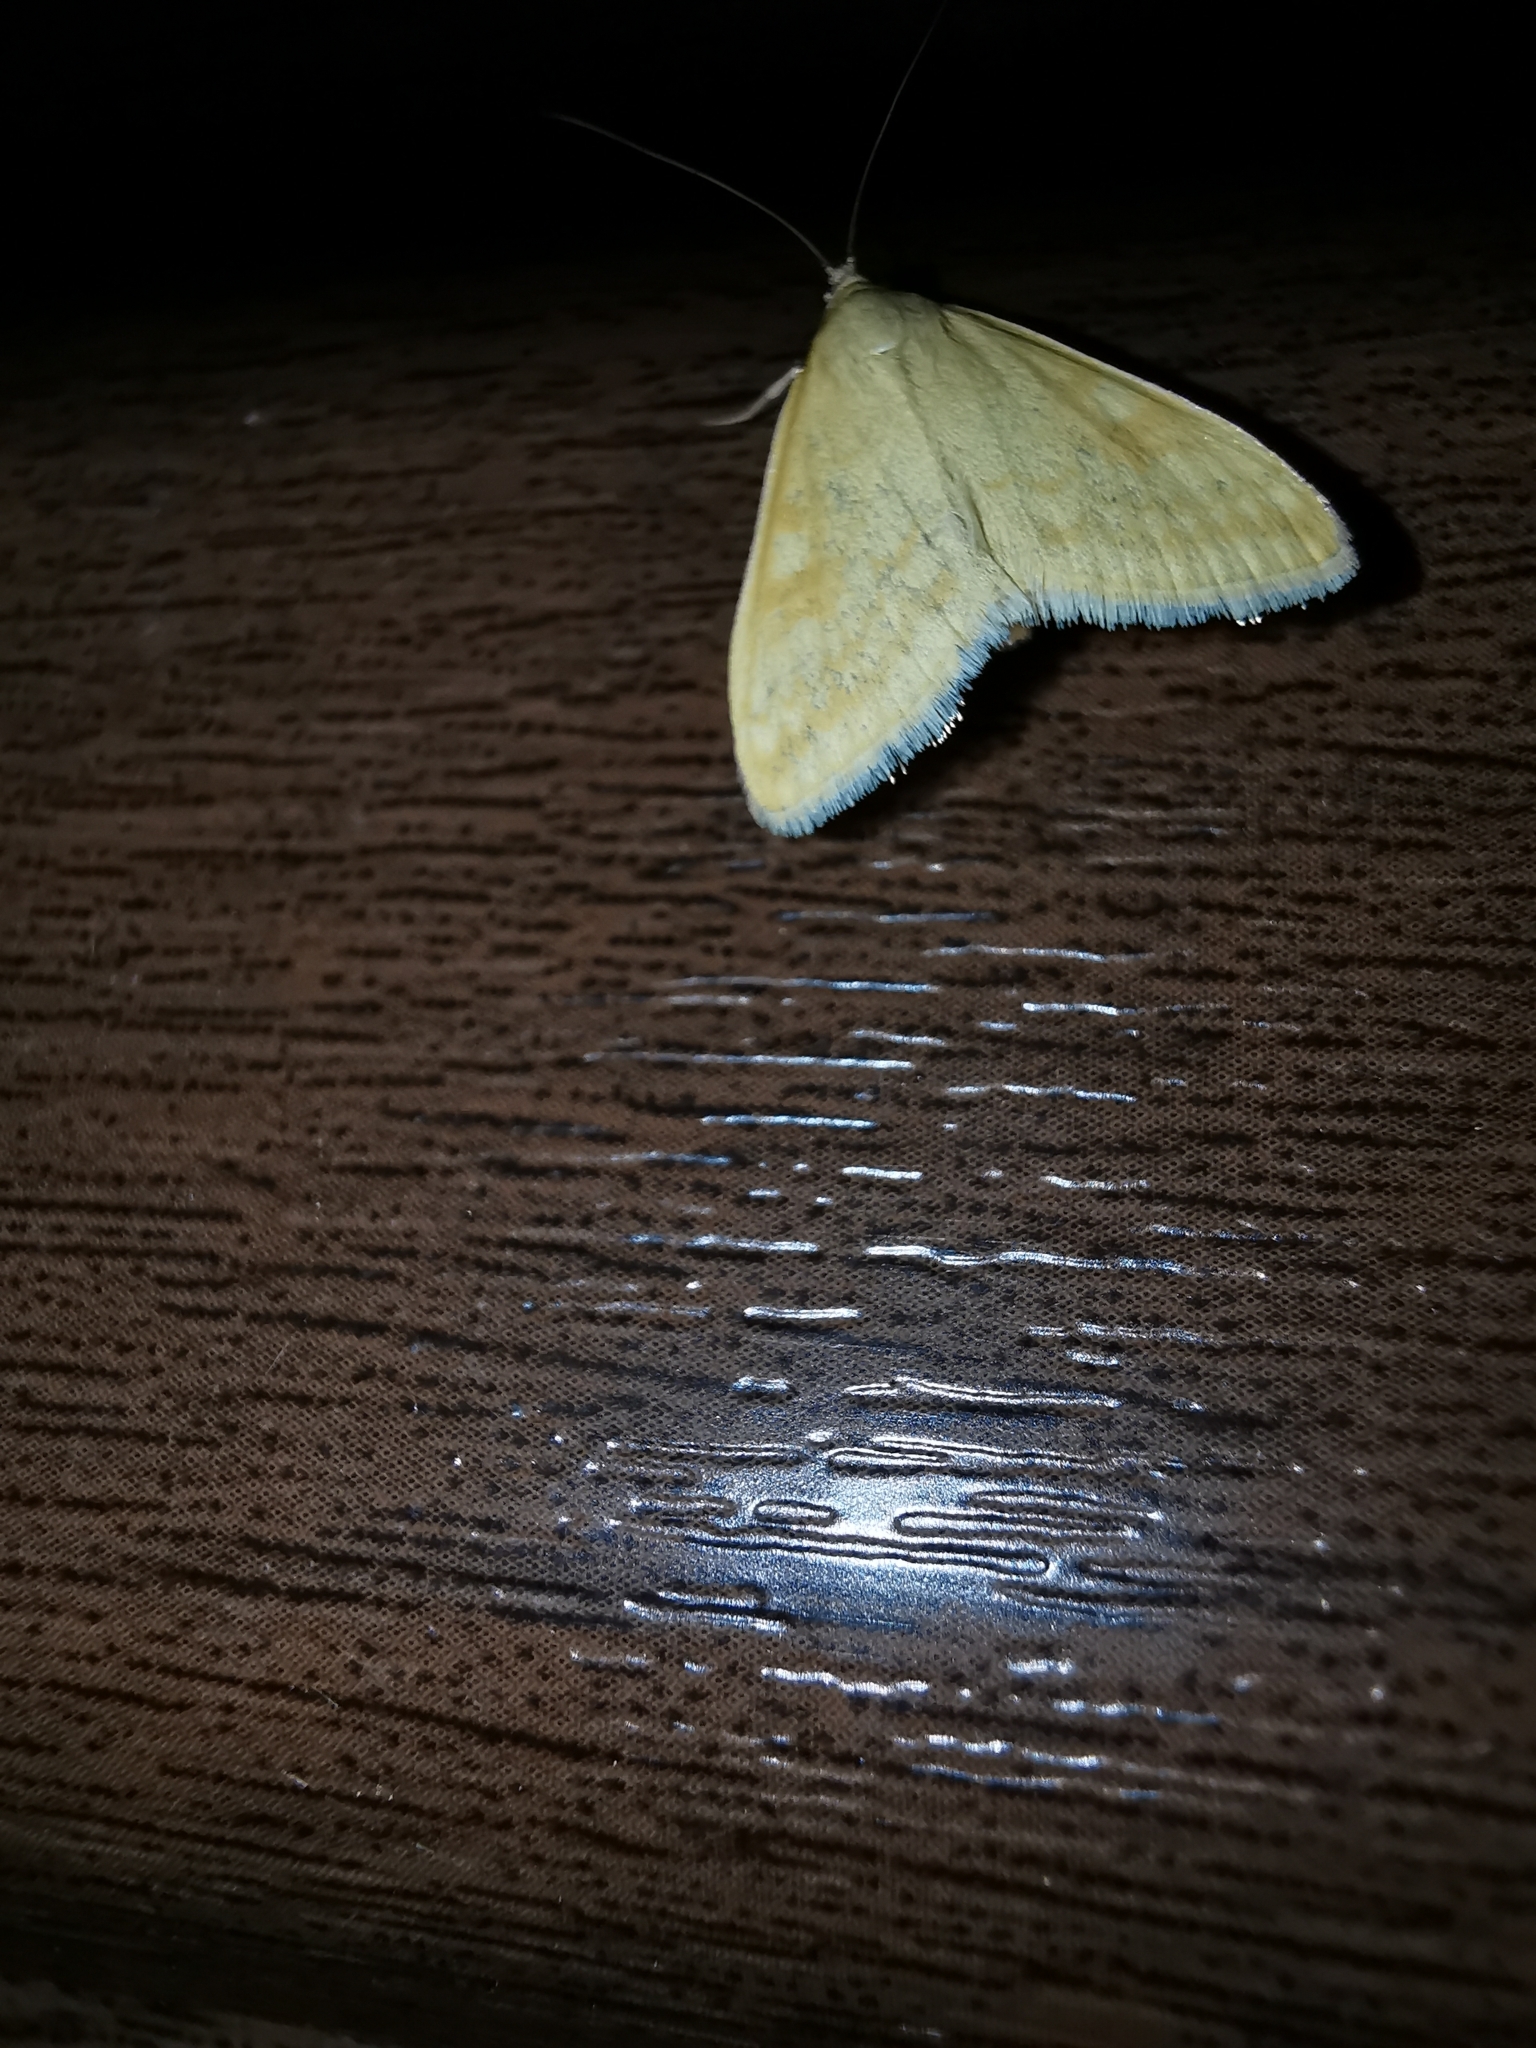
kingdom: Animalia
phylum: Arthropoda
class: Insecta
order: Lepidoptera
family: Crambidae
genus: Sitochroa
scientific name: Sitochroa verticalis
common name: Lesser pearl
